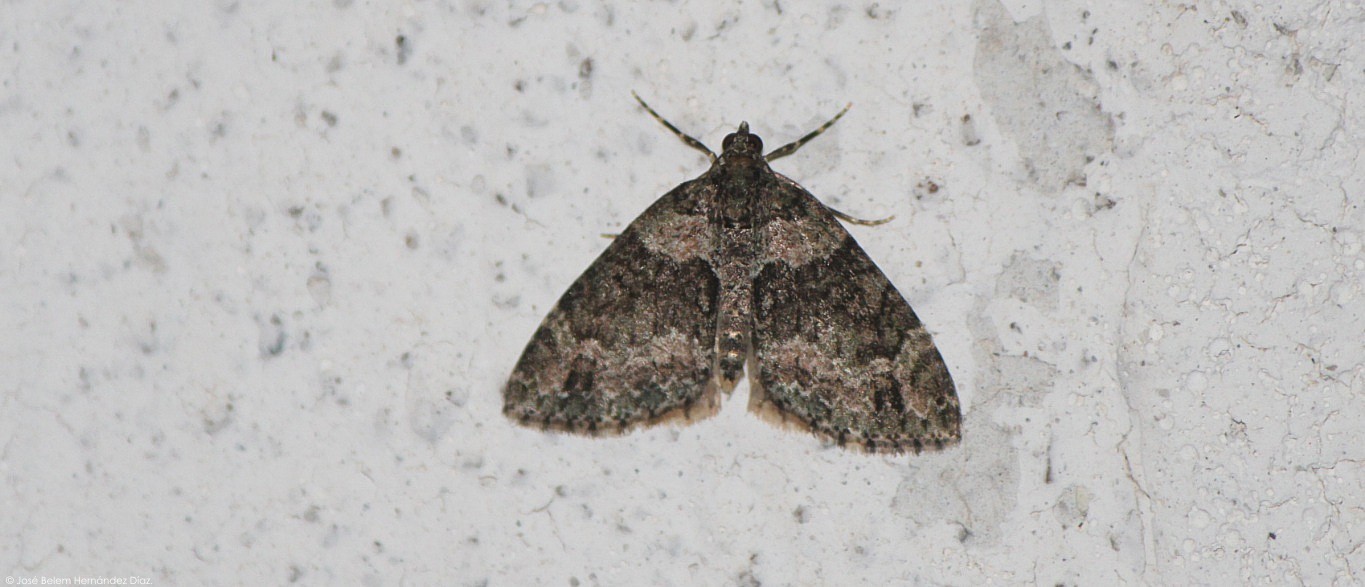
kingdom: Animalia
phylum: Arthropoda
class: Insecta
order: Lepidoptera
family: Geometridae
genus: Hammaptera
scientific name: Hammaptera parinotata
